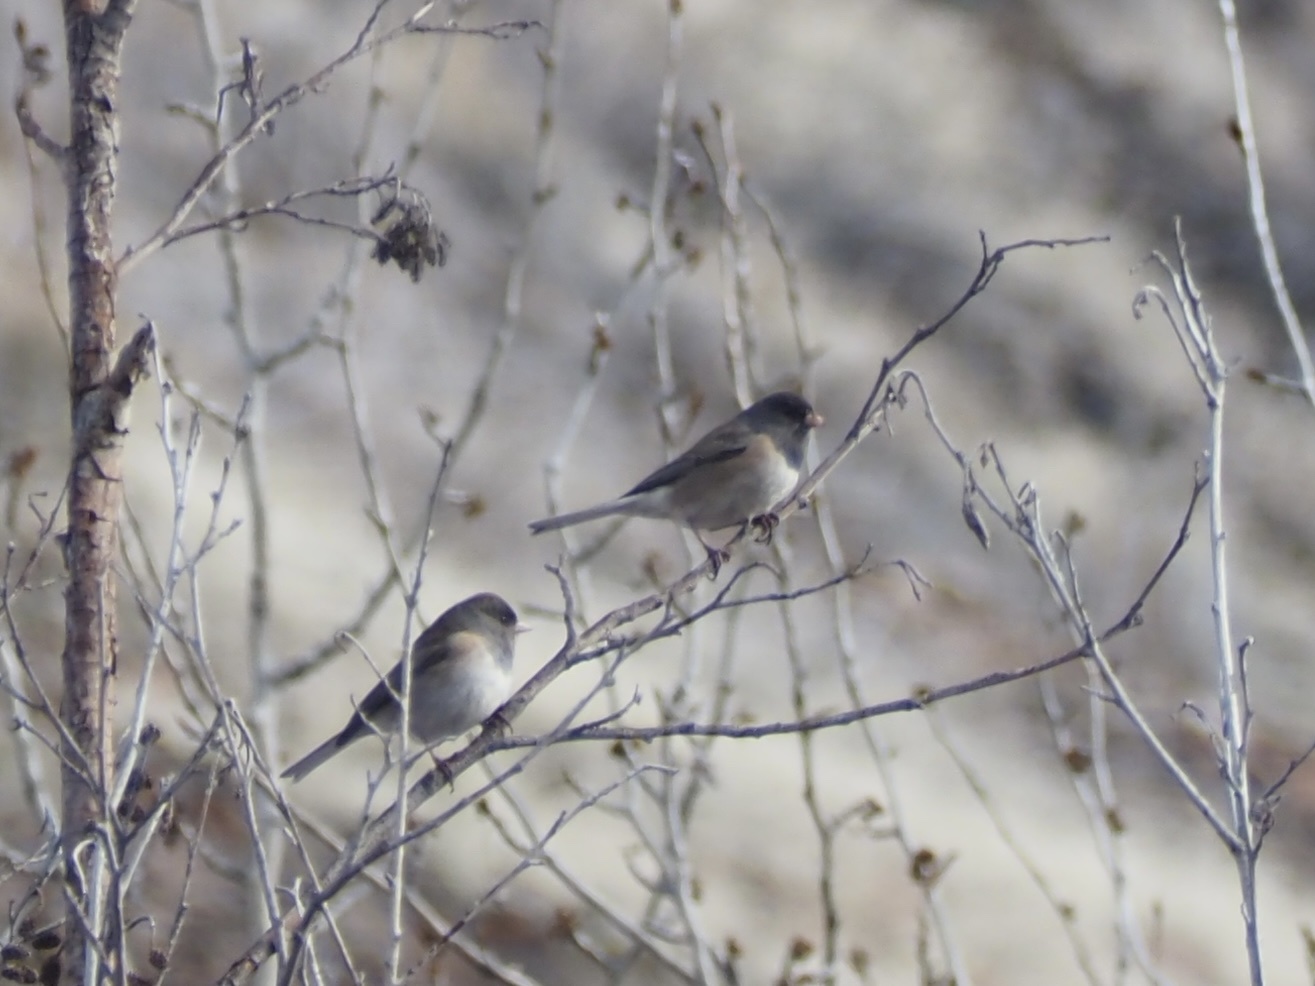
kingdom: Animalia
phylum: Chordata
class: Aves
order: Passeriformes
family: Passerellidae
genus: Junco
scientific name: Junco hyemalis
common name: Dark-eyed junco
